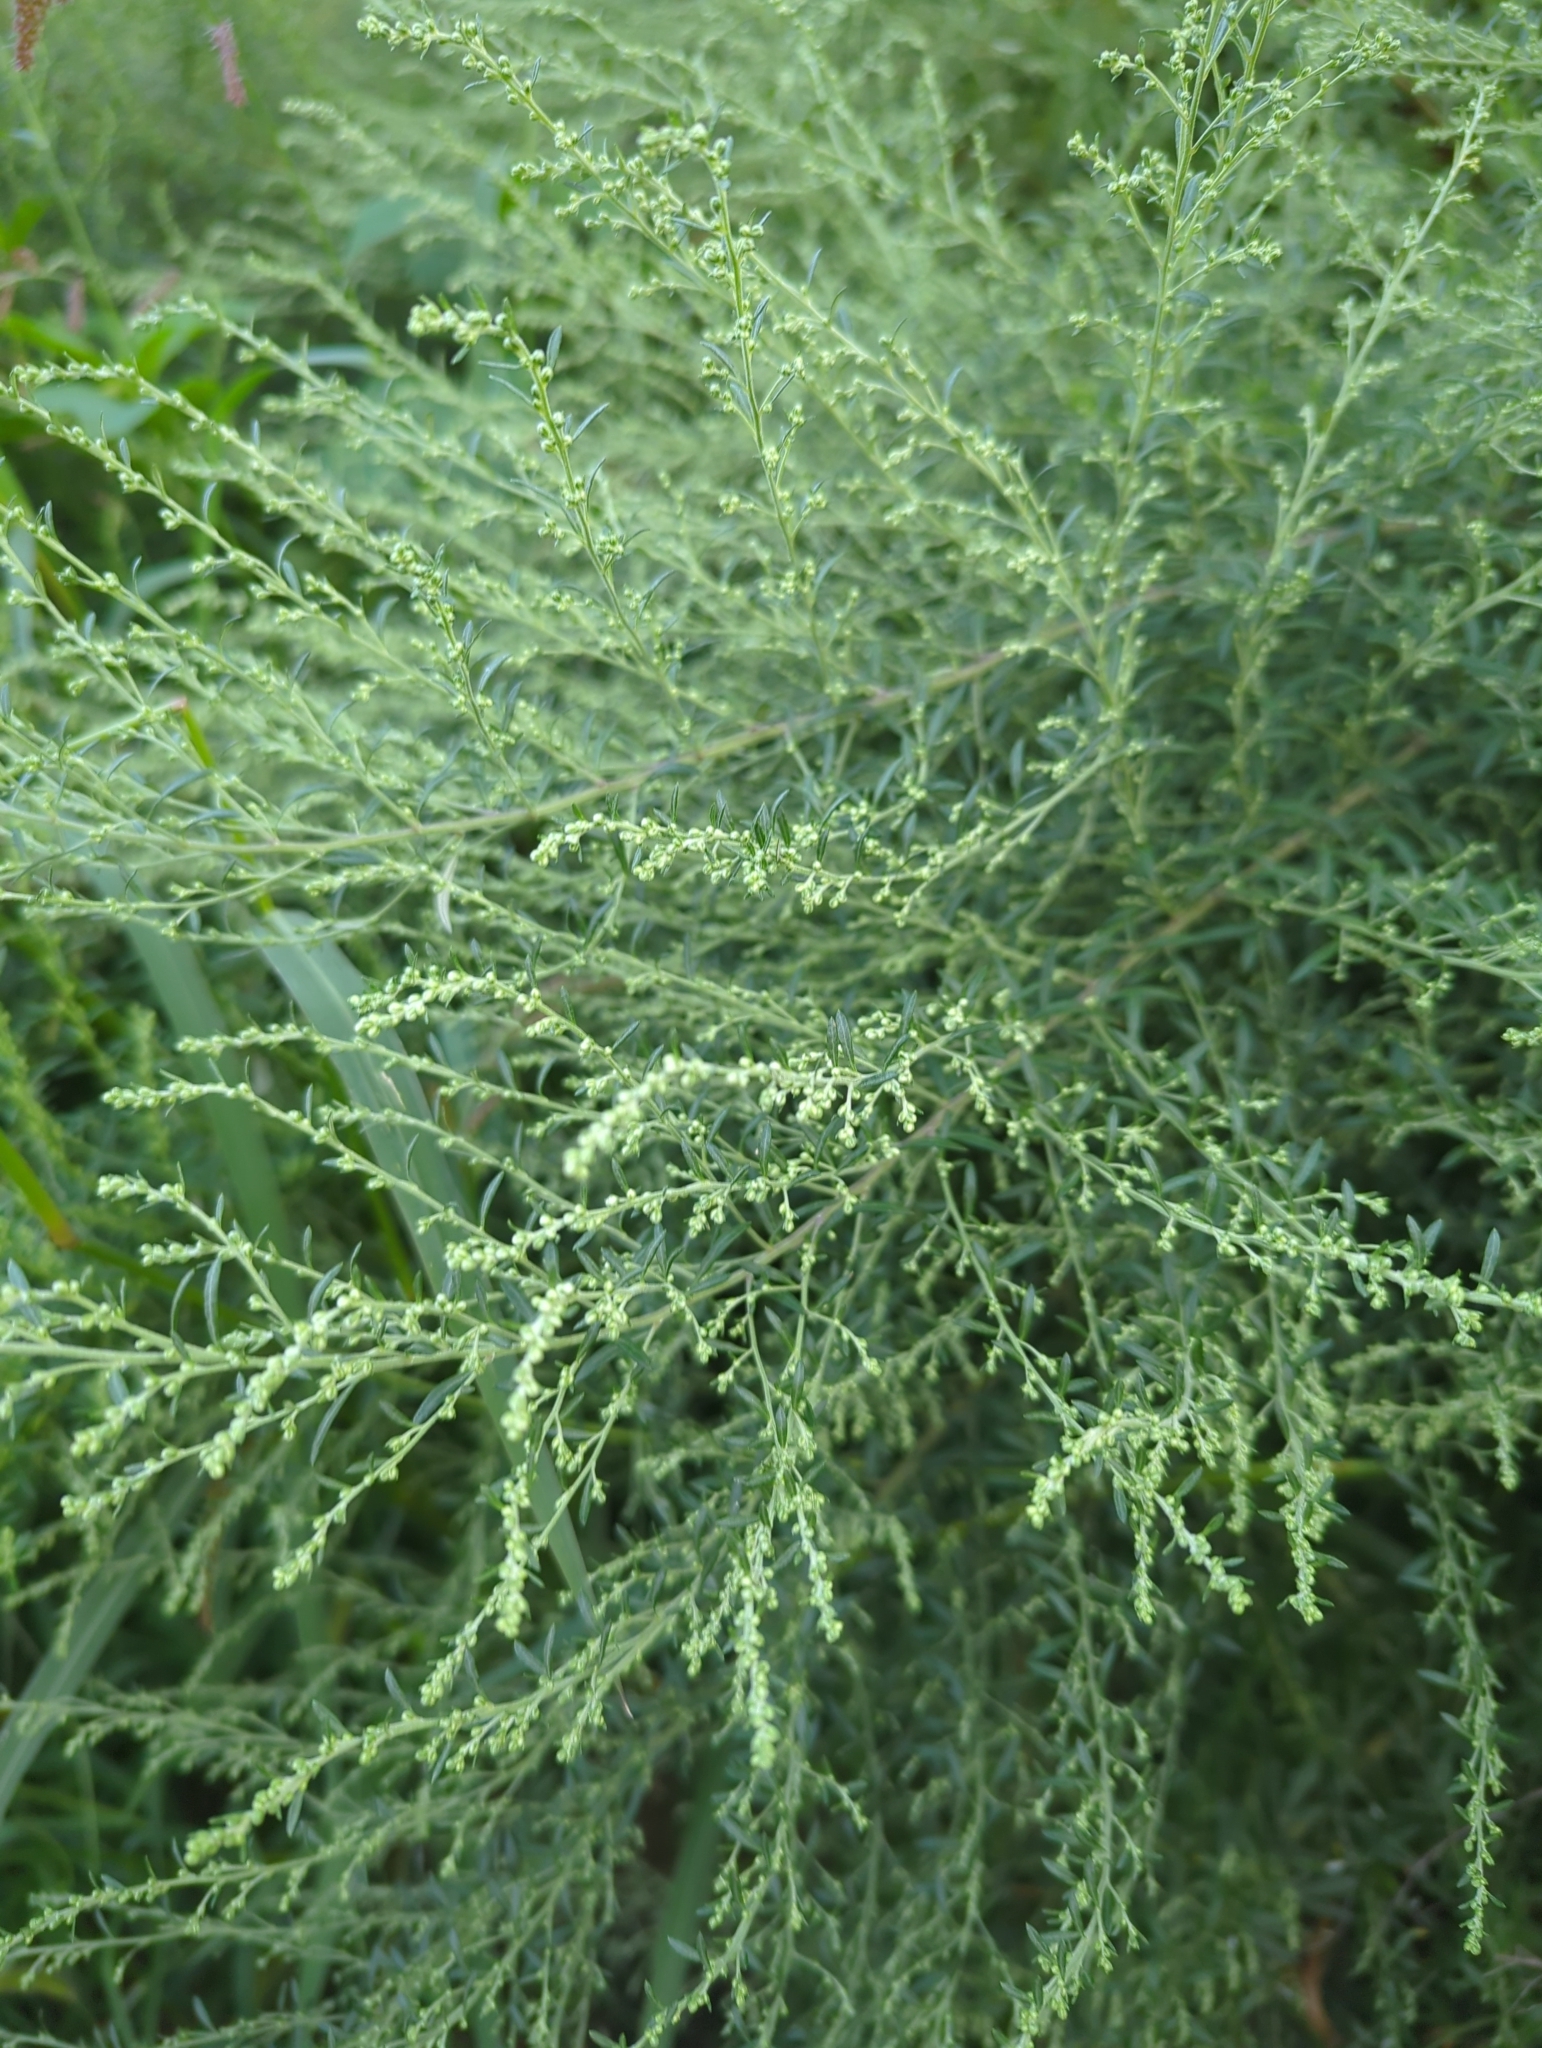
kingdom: Plantae
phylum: Tracheophyta
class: Magnoliopsida
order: Asterales
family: Asteraceae
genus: Artemisia
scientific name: Artemisia vulgaris
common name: Mugwort
